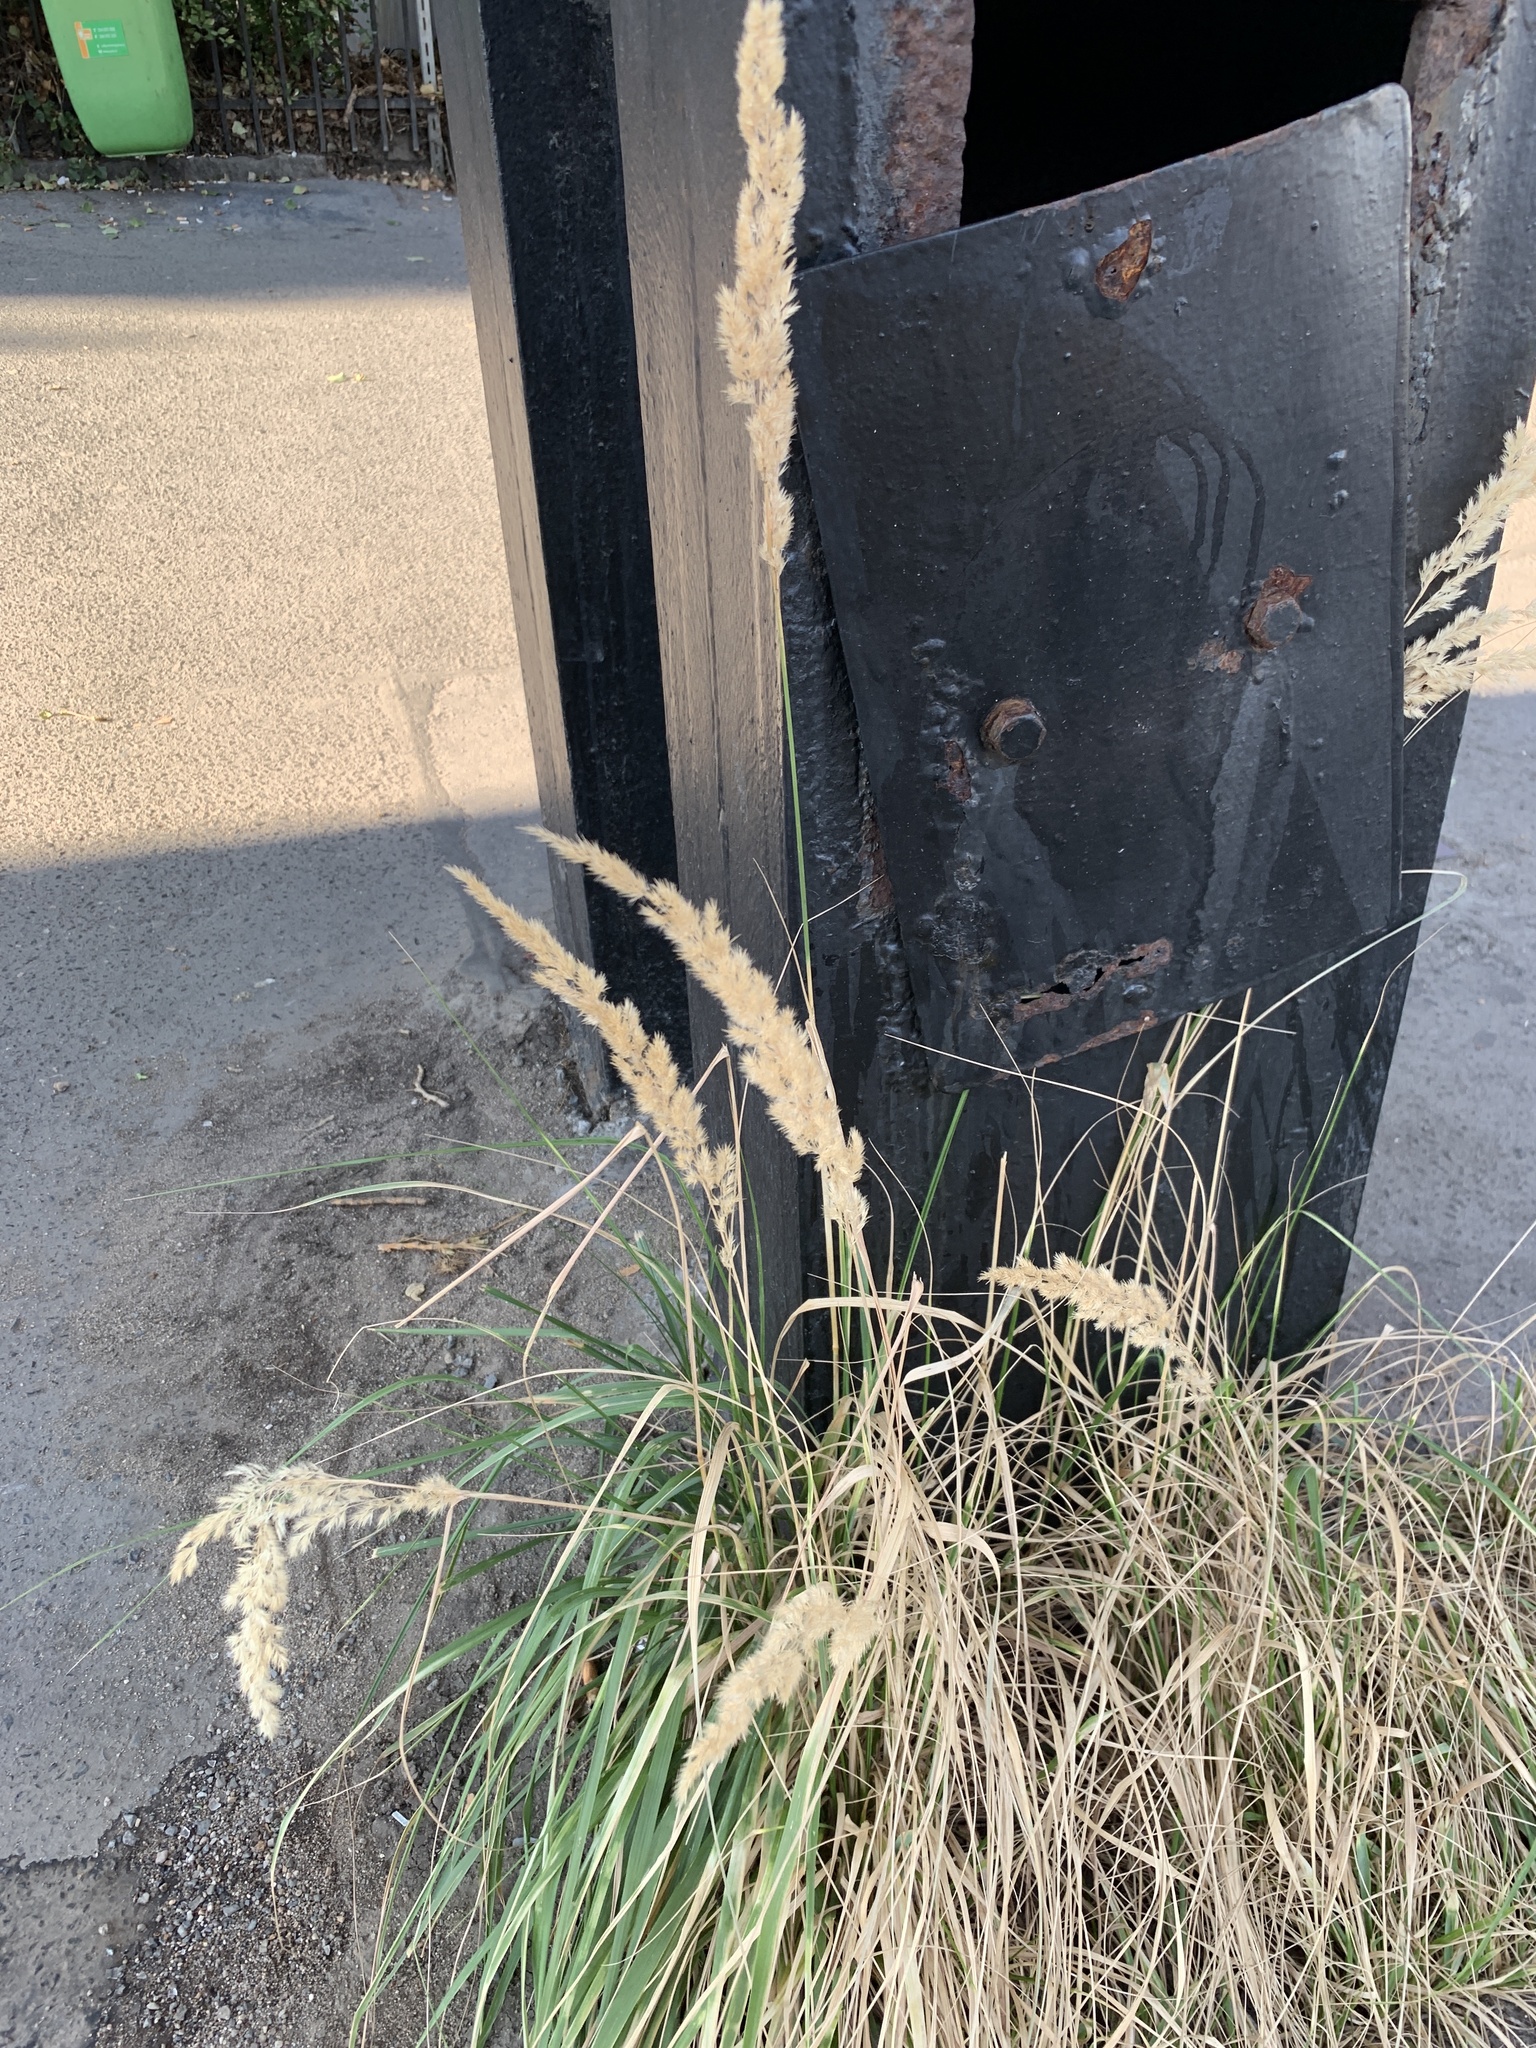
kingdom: Plantae
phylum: Tracheophyta
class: Liliopsida
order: Poales
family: Poaceae
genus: Calamagrostis
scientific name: Calamagrostis epigejos
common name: Wood small-reed
